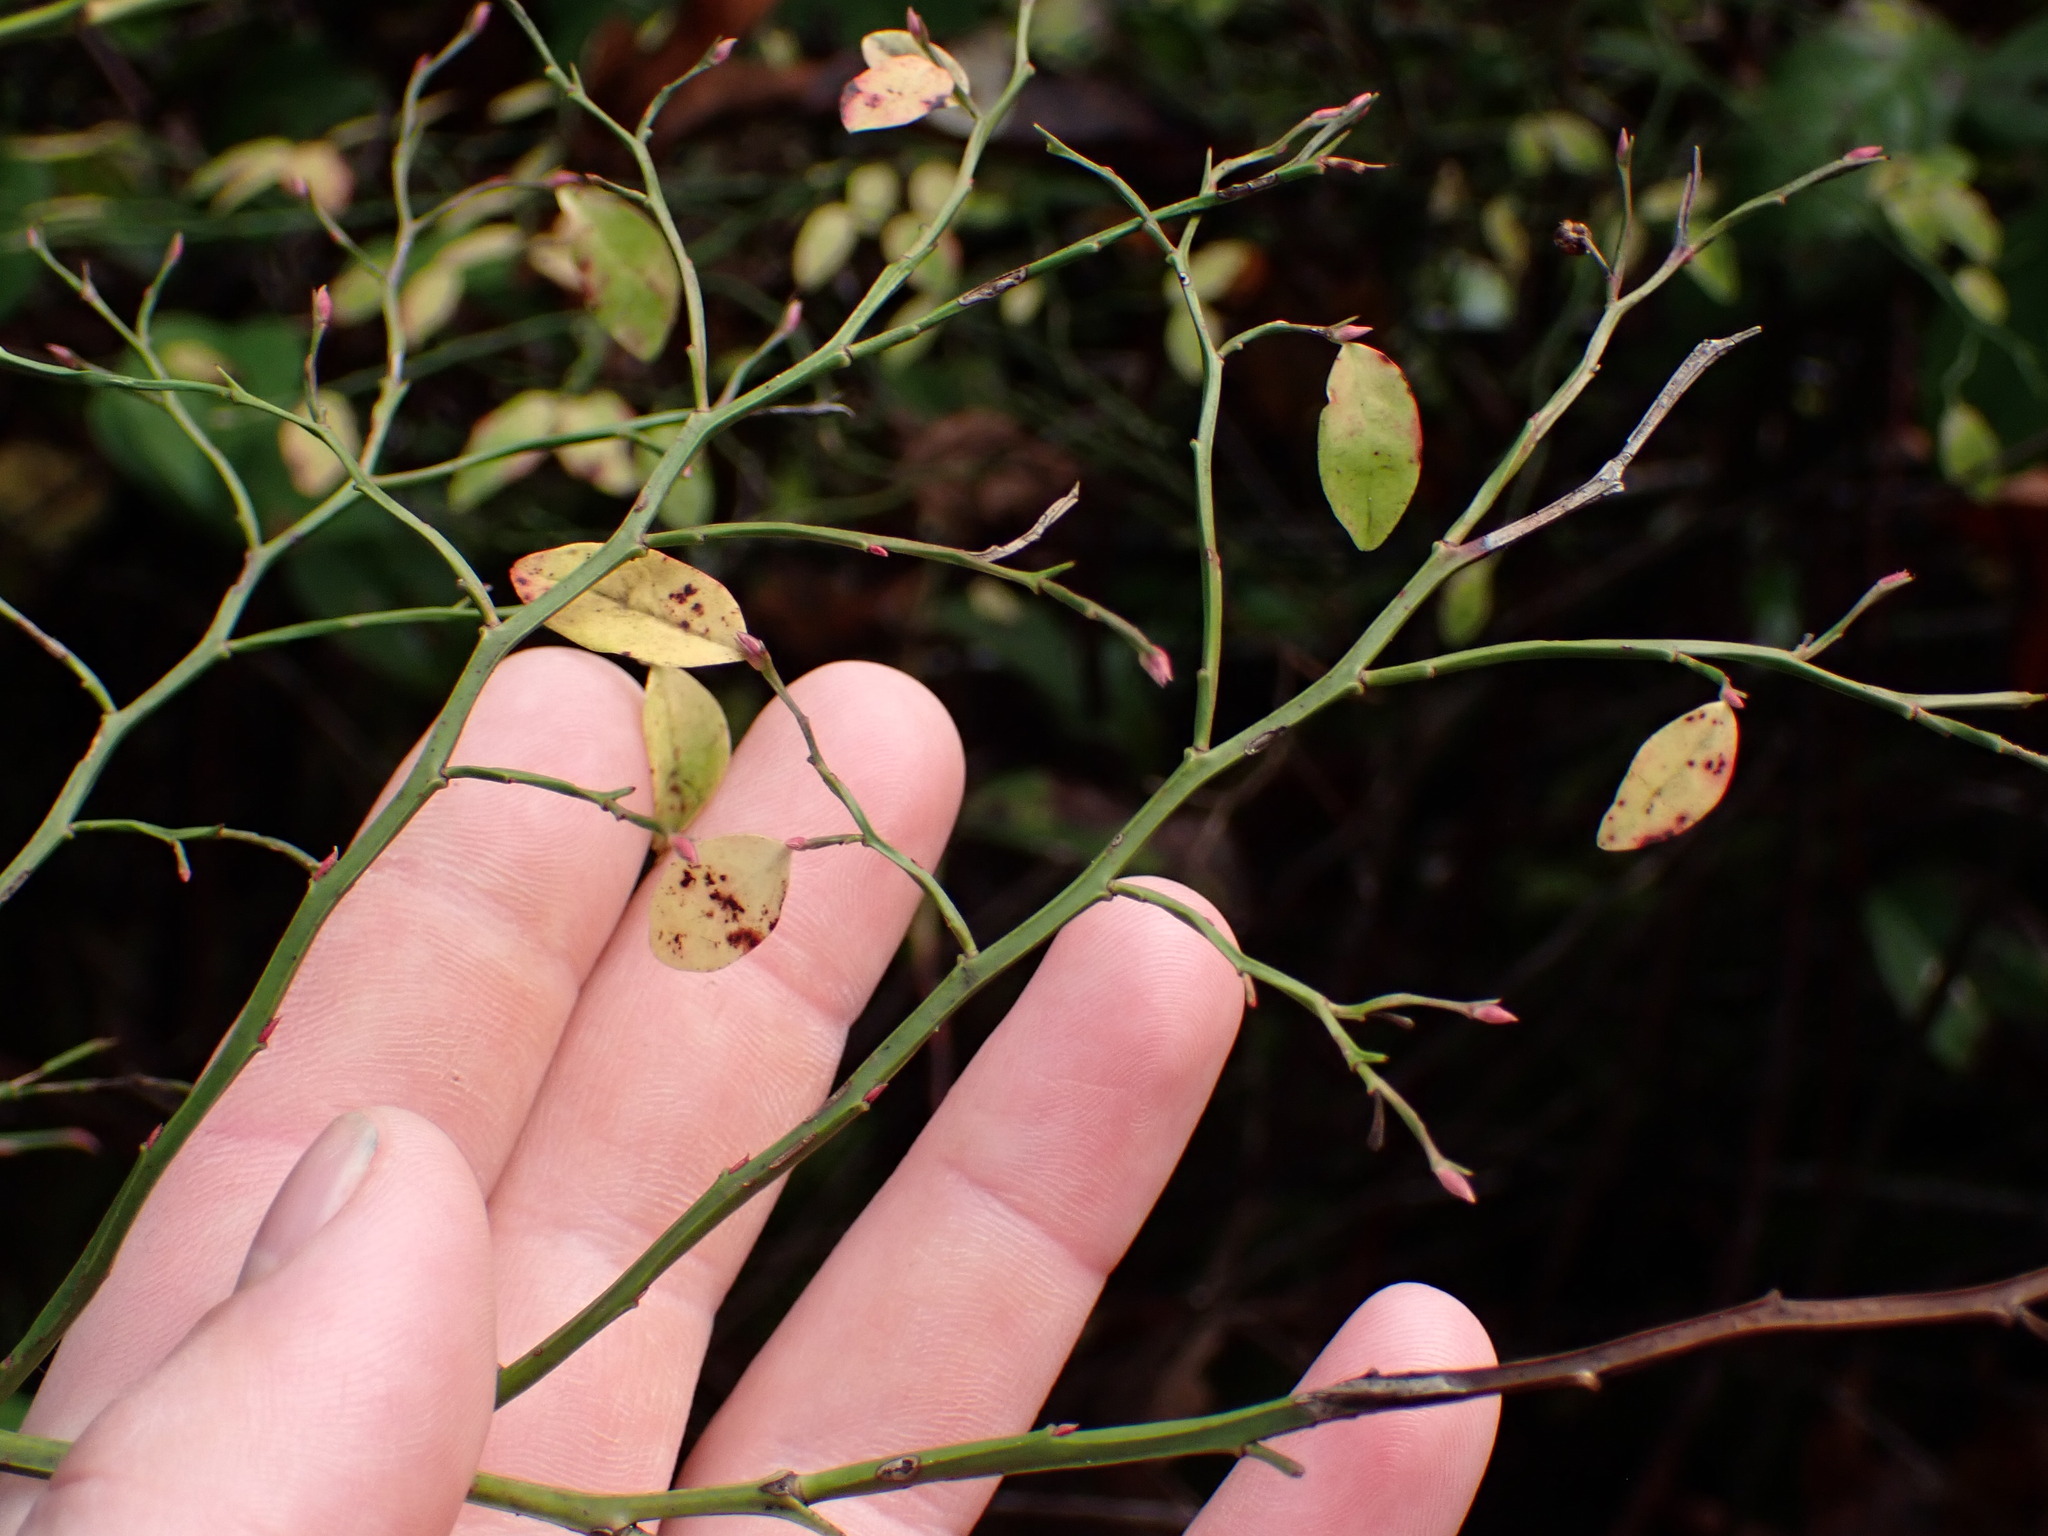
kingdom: Plantae
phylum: Tracheophyta
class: Magnoliopsida
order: Ericales
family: Ericaceae
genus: Vaccinium
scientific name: Vaccinium parvifolium
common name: Red-huckleberry
